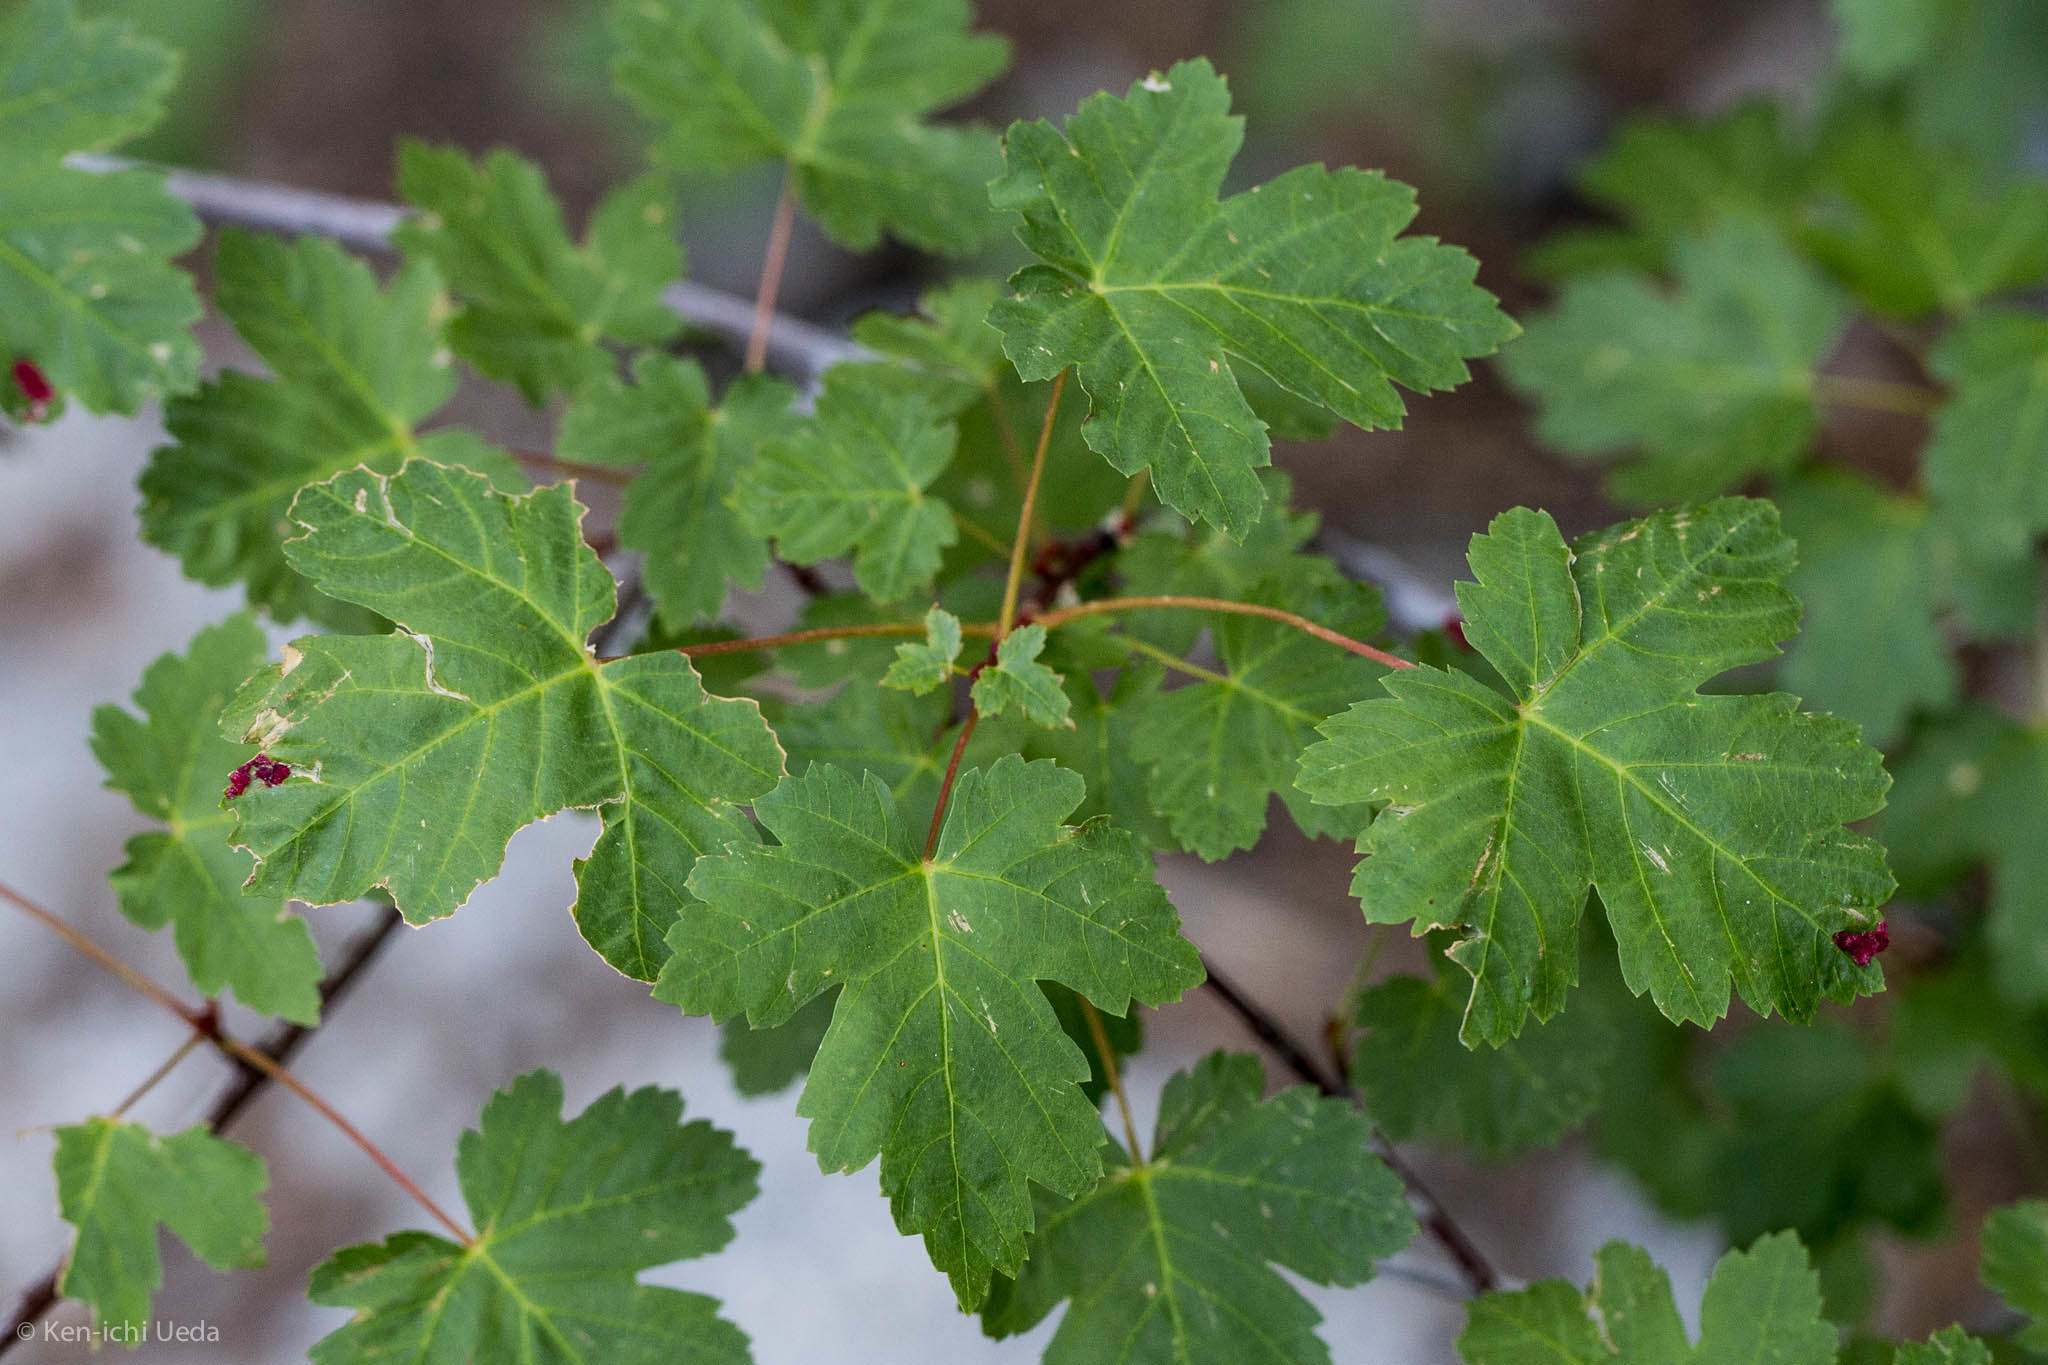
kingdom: Plantae
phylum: Tracheophyta
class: Magnoliopsida
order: Sapindales
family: Sapindaceae
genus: Acer
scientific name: Acer glabrum
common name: Rocky mountain maple
